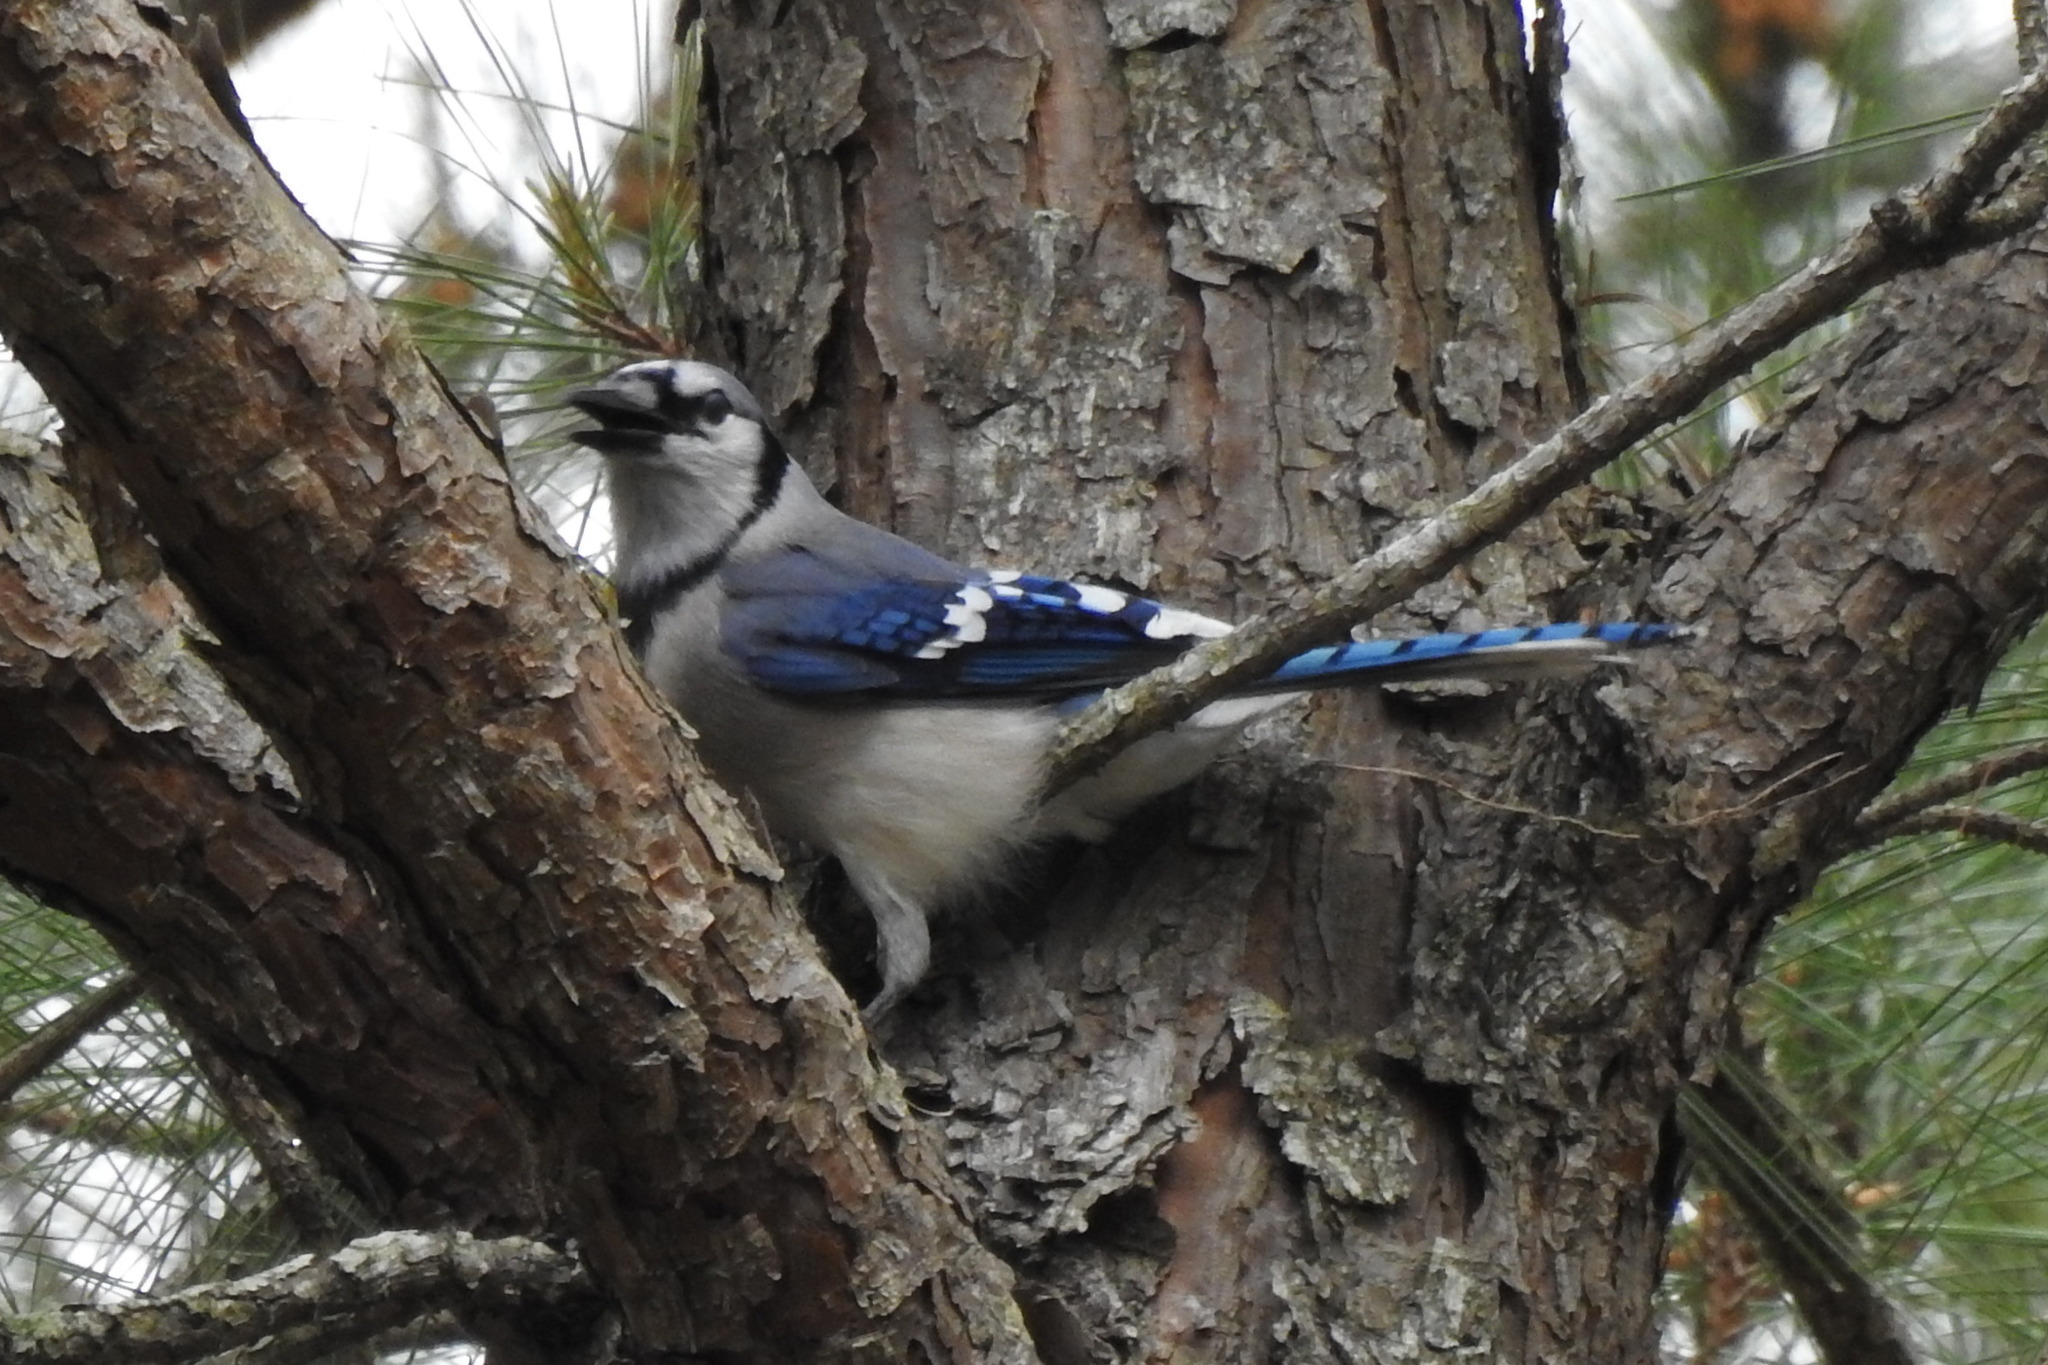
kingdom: Animalia
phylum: Chordata
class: Aves
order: Passeriformes
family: Corvidae
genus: Cyanocitta
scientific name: Cyanocitta cristata
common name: Blue jay
